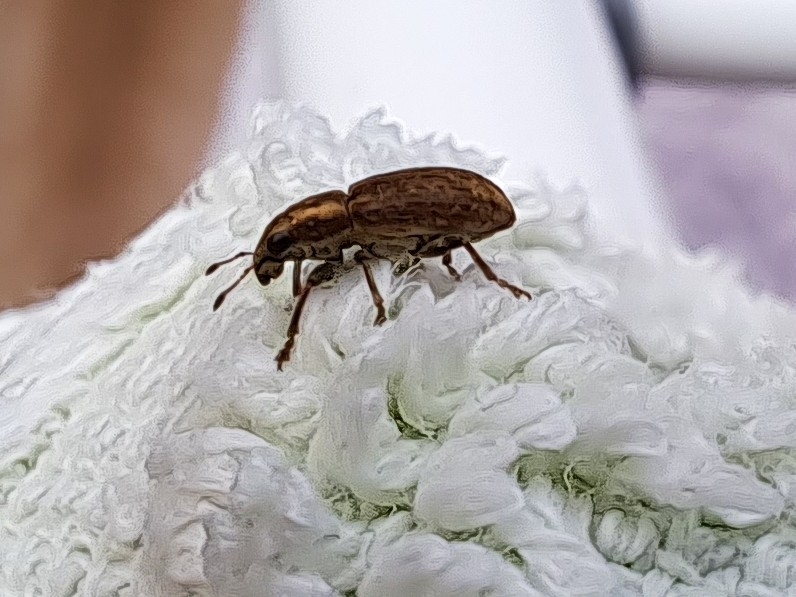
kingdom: Animalia
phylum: Arthropoda
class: Insecta
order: Coleoptera
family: Curculionidae
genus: Sitona
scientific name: Sitona obsoletus
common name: Weevil
